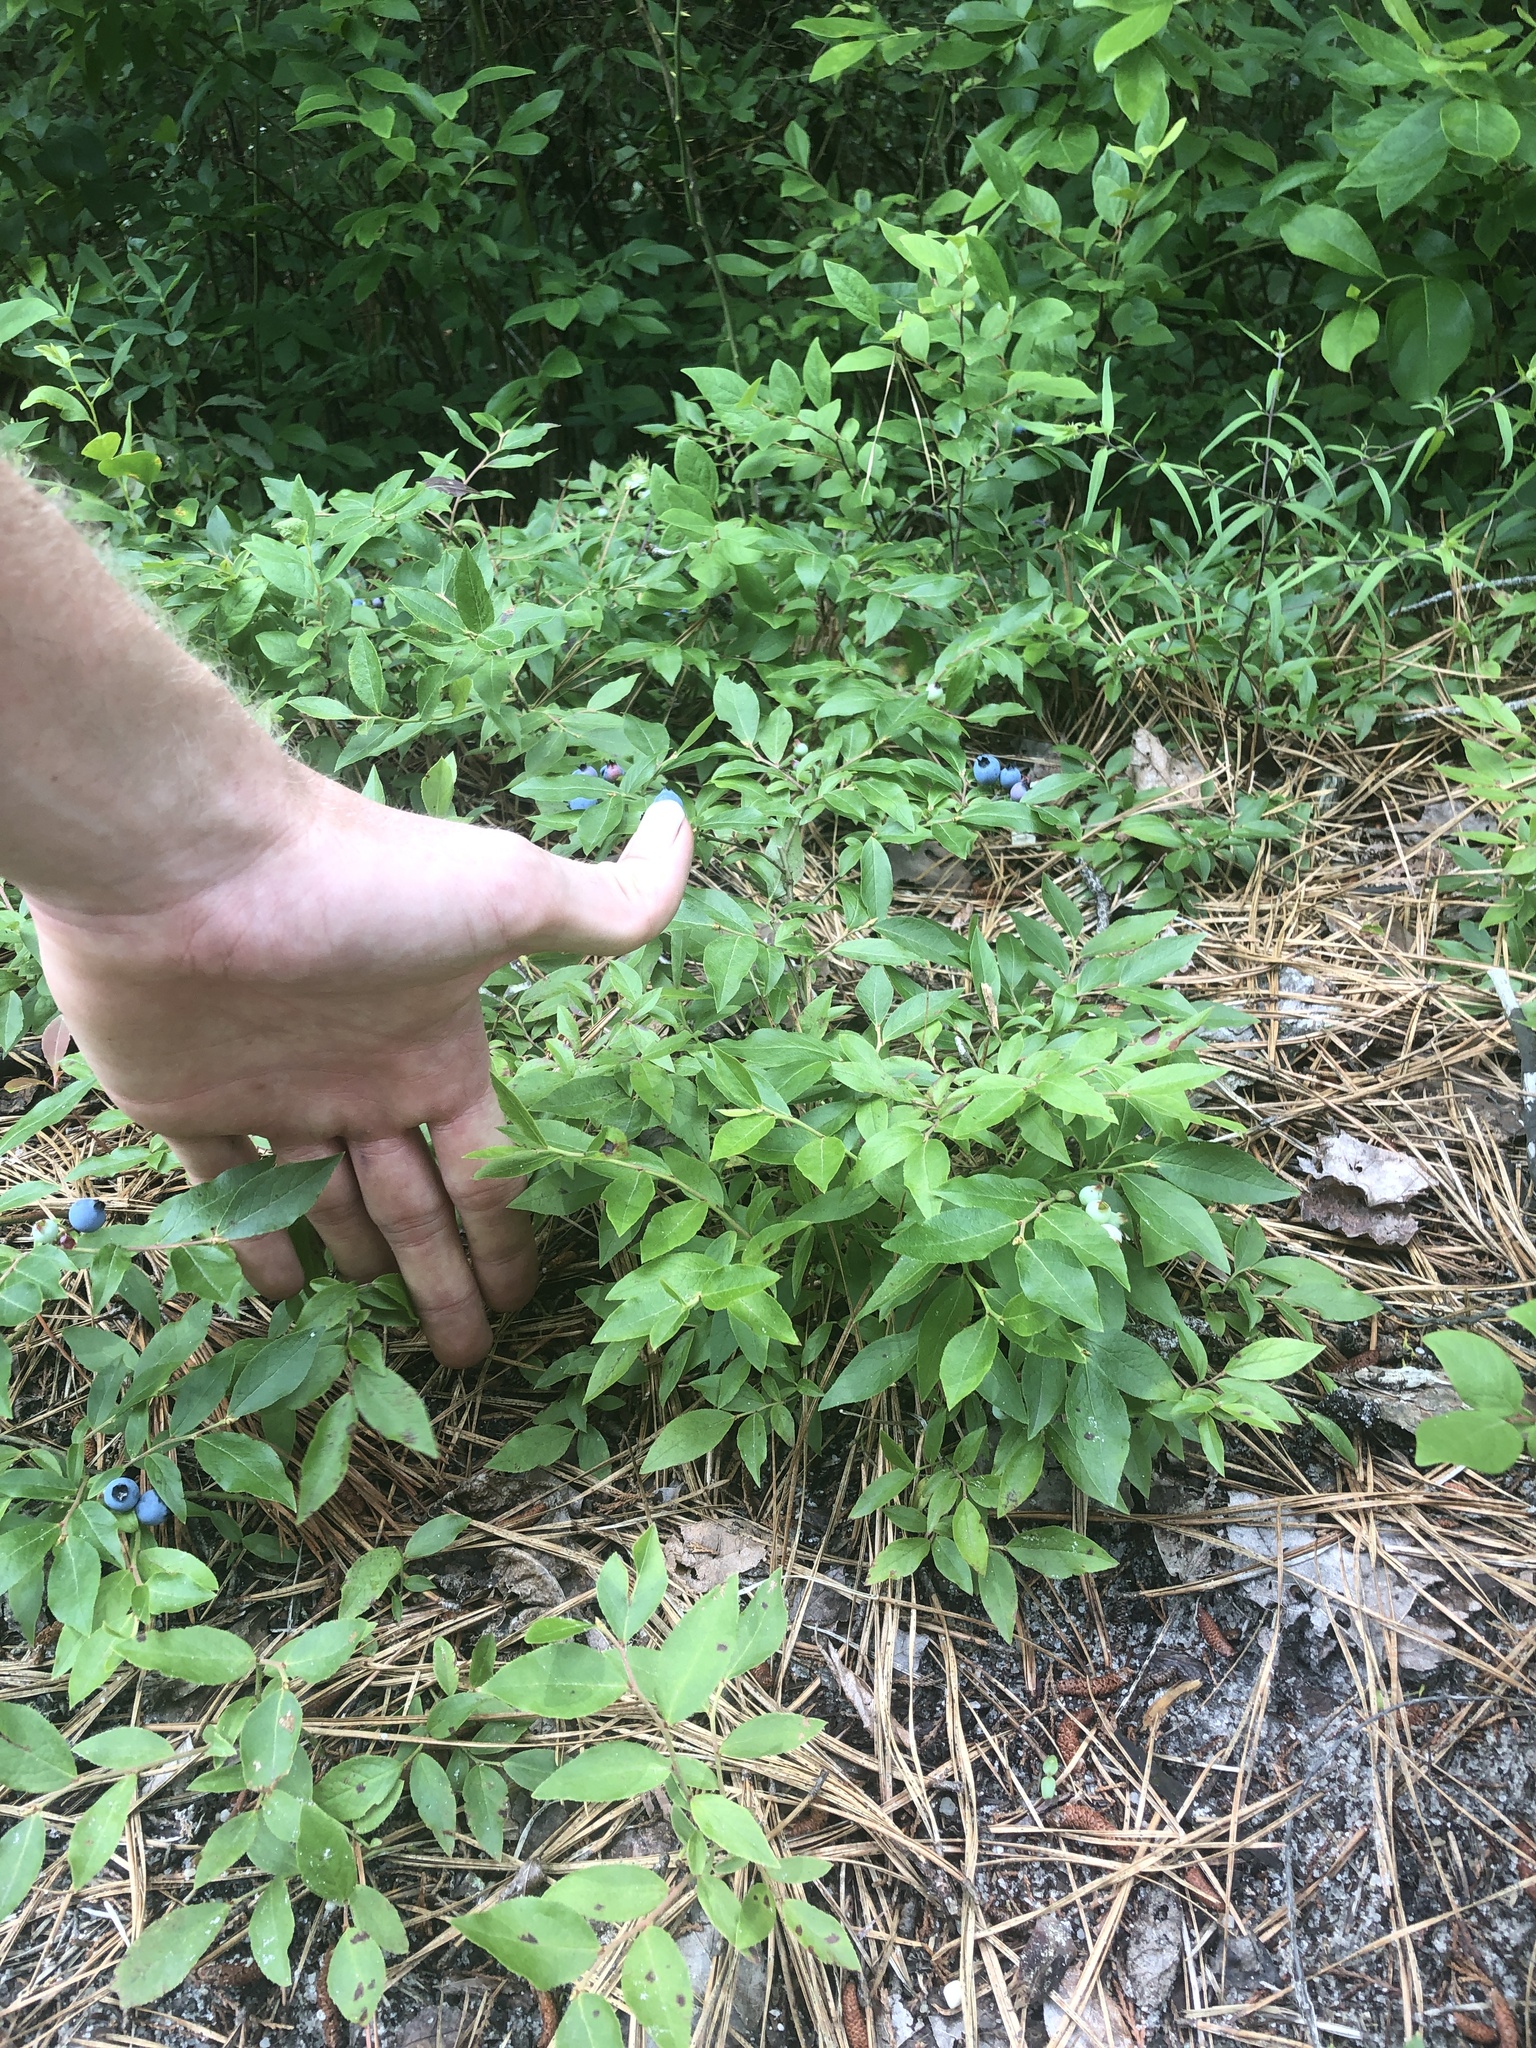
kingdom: Plantae
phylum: Tracheophyta
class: Magnoliopsida
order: Ericales
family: Ericaceae
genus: Vaccinium
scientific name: Vaccinium angustifolium
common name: Early lowbush blueberry
